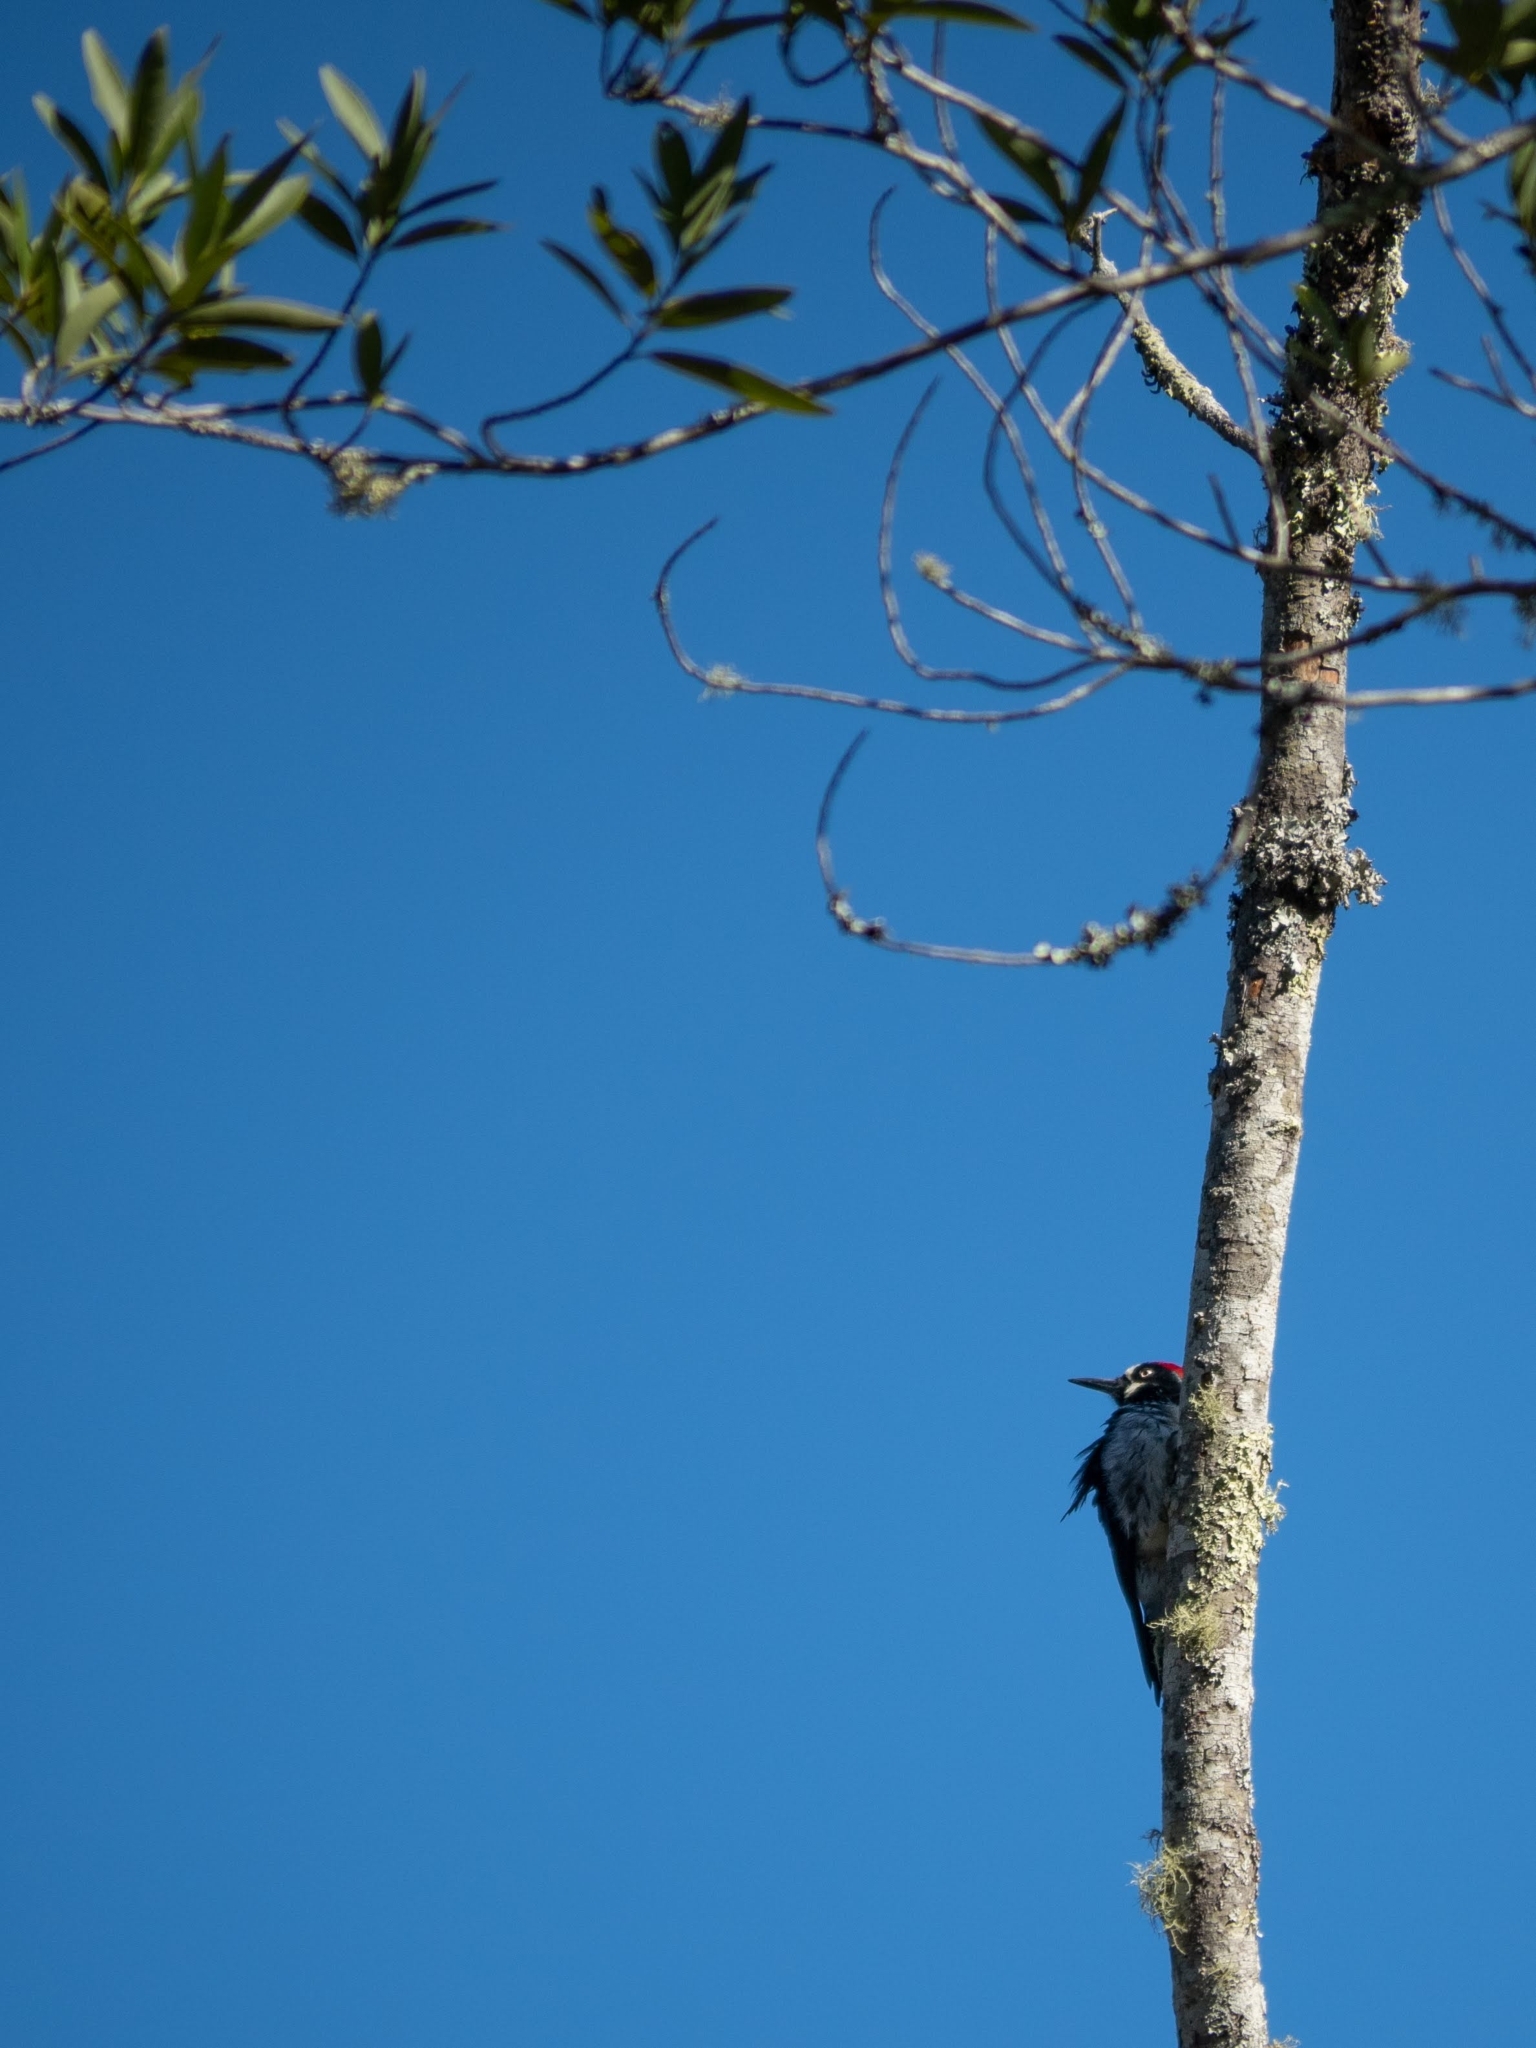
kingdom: Animalia
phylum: Chordata
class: Aves
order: Piciformes
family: Picidae
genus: Melanerpes
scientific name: Melanerpes formicivorus
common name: Acorn woodpecker
